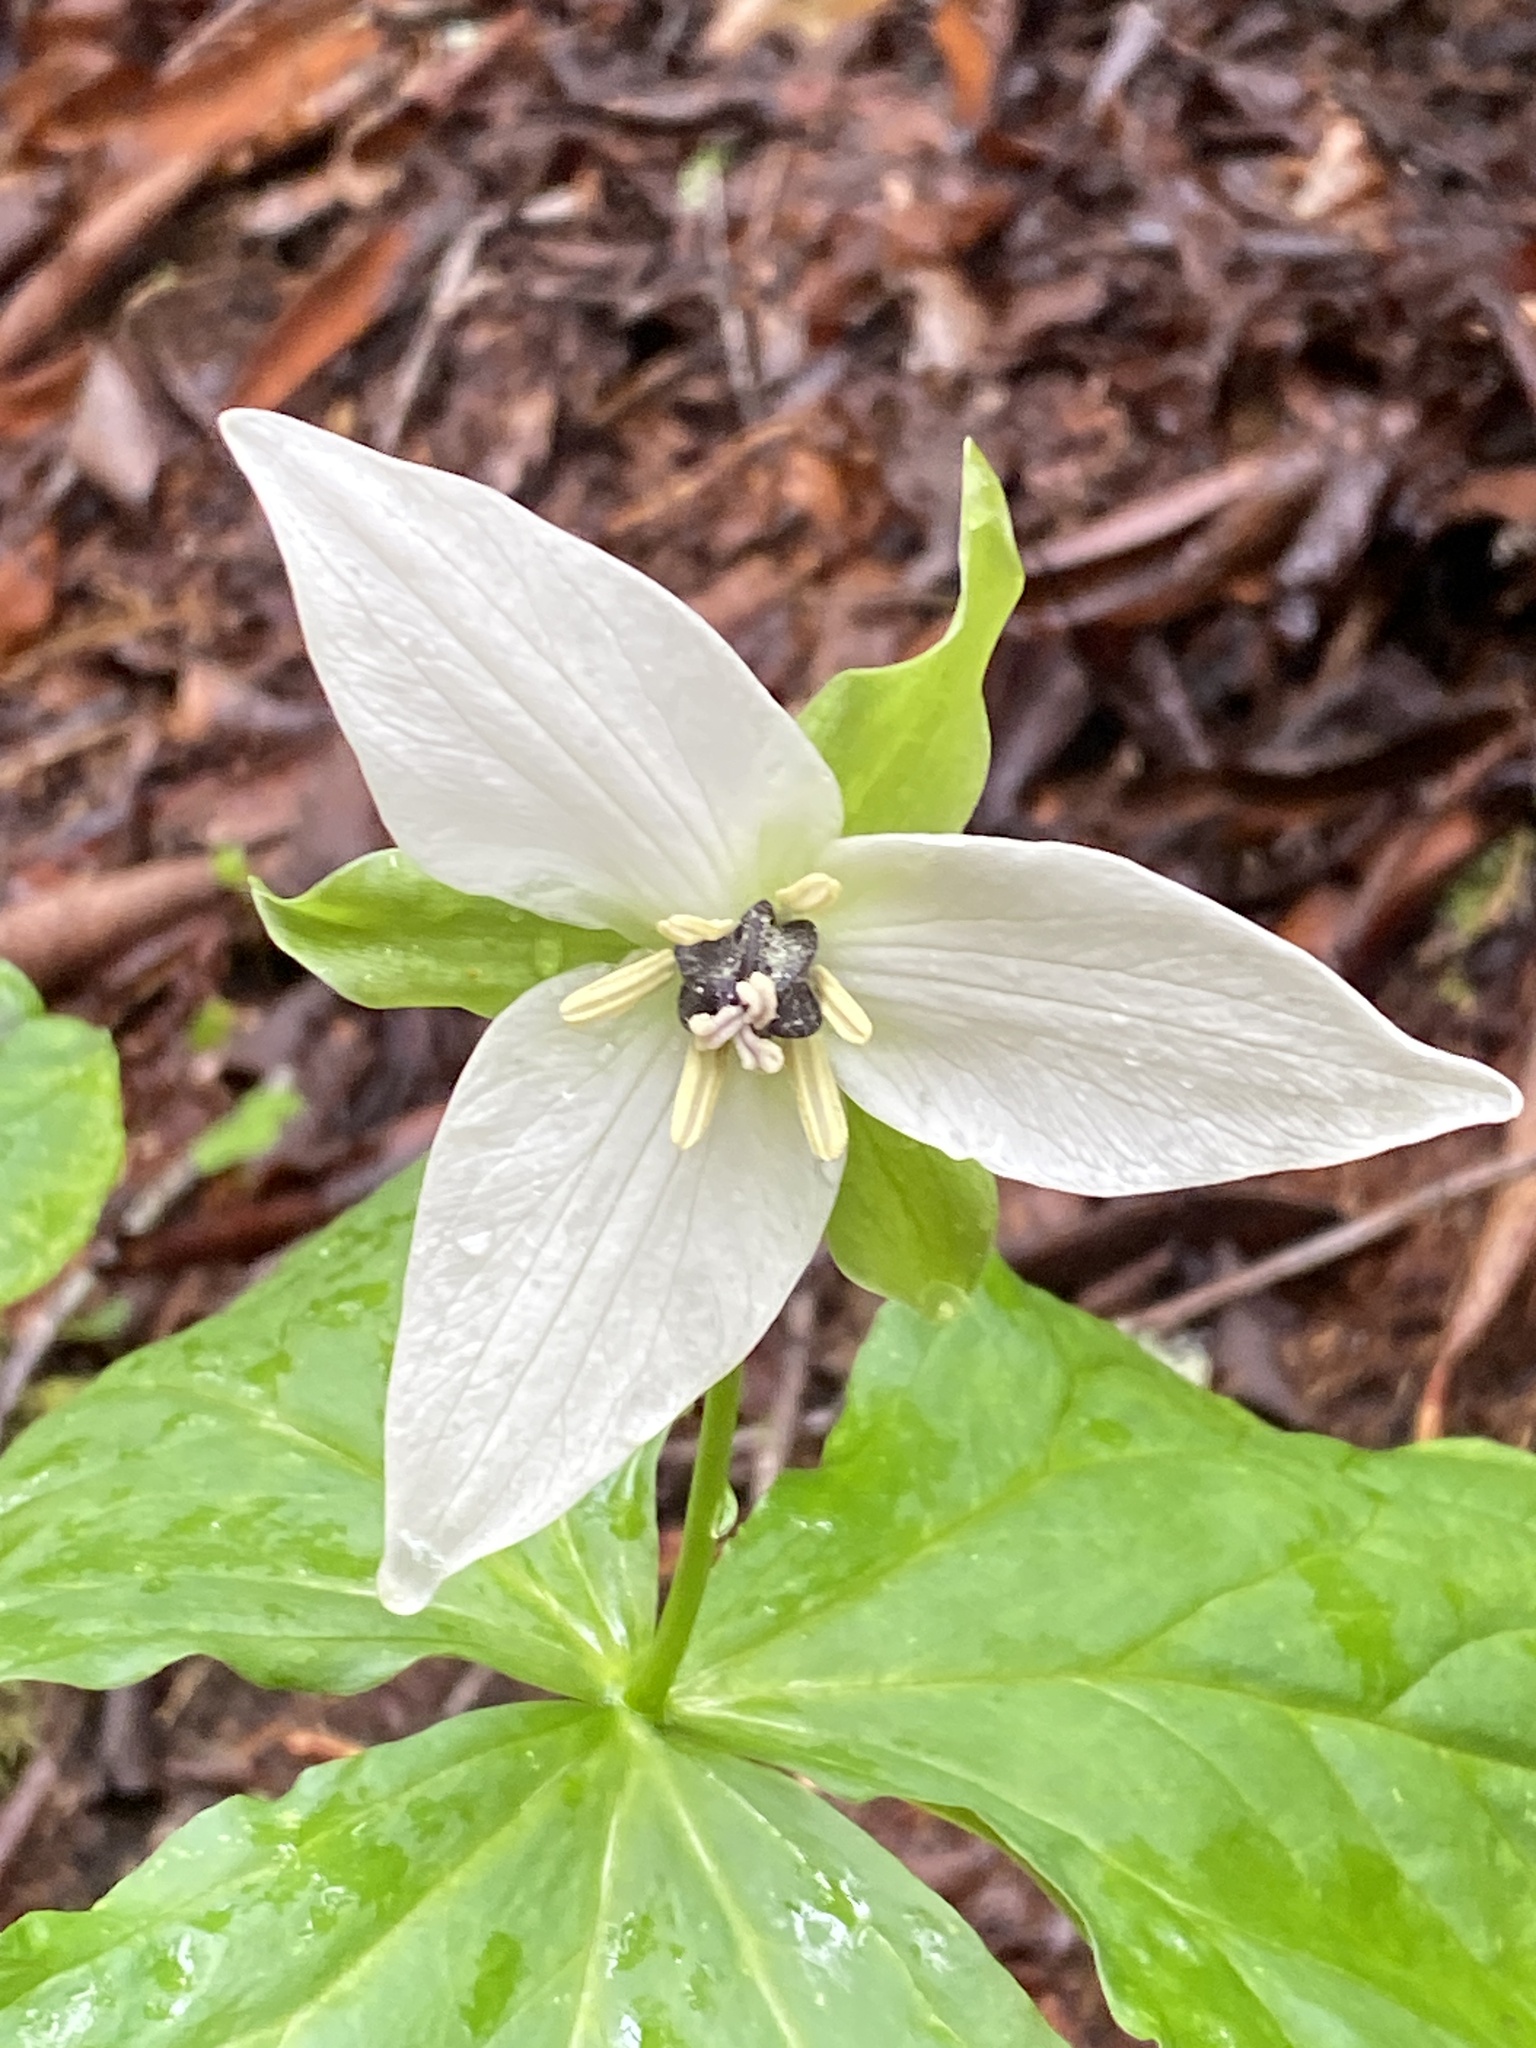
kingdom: Plantae
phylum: Tracheophyta
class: Liliopsida
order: Liliales
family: Melanthiaceae
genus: Trillium
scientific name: Trillium erectum
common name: Purple trillium
